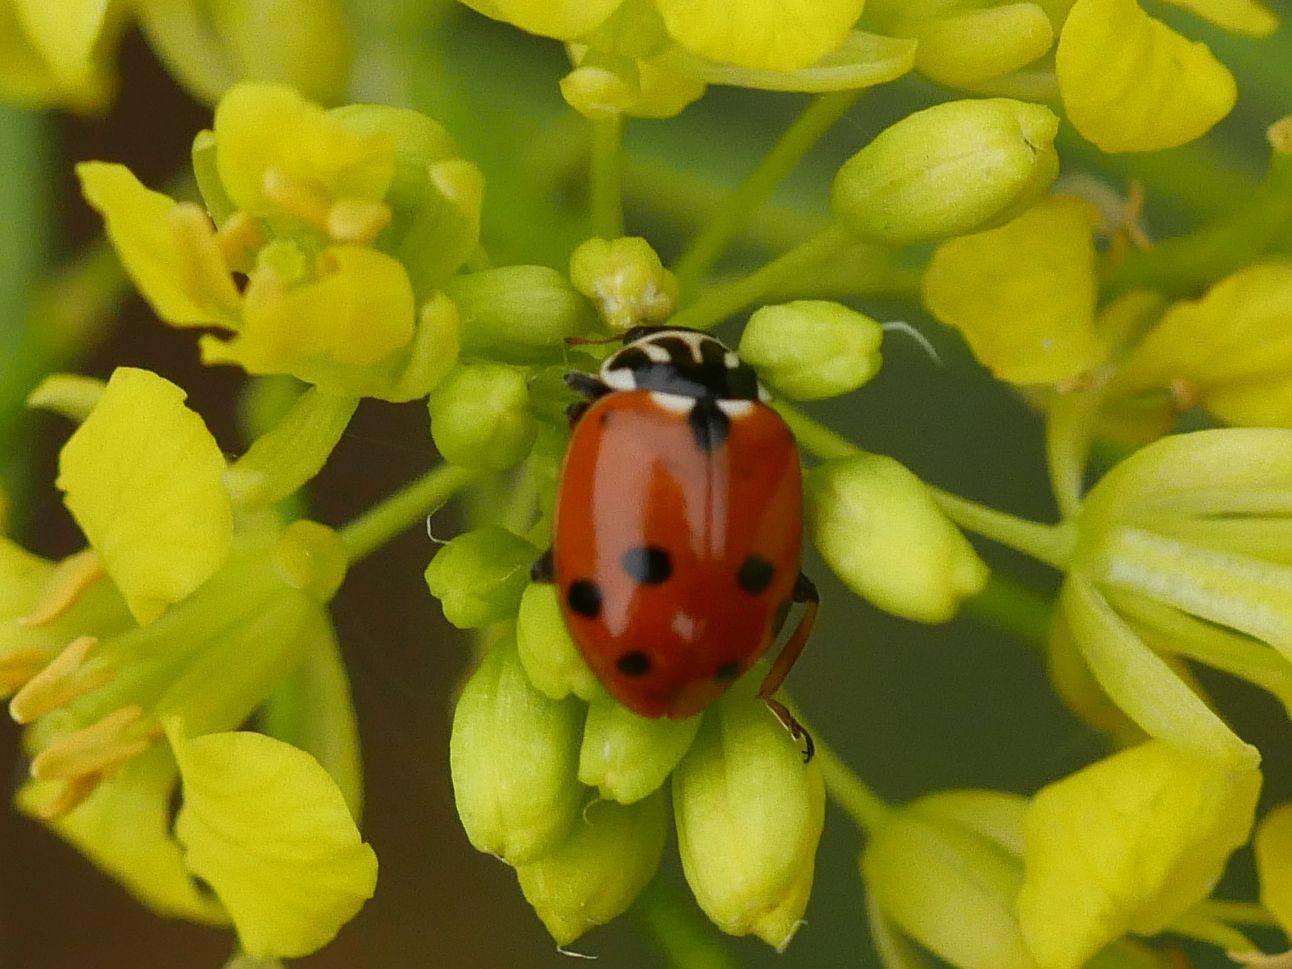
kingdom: Animalia
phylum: Arthropoda
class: Insecta
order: Coleoptera
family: Coccinellidae
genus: Hippodamia
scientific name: Hippodamia variegata
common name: Ladybird beetle
